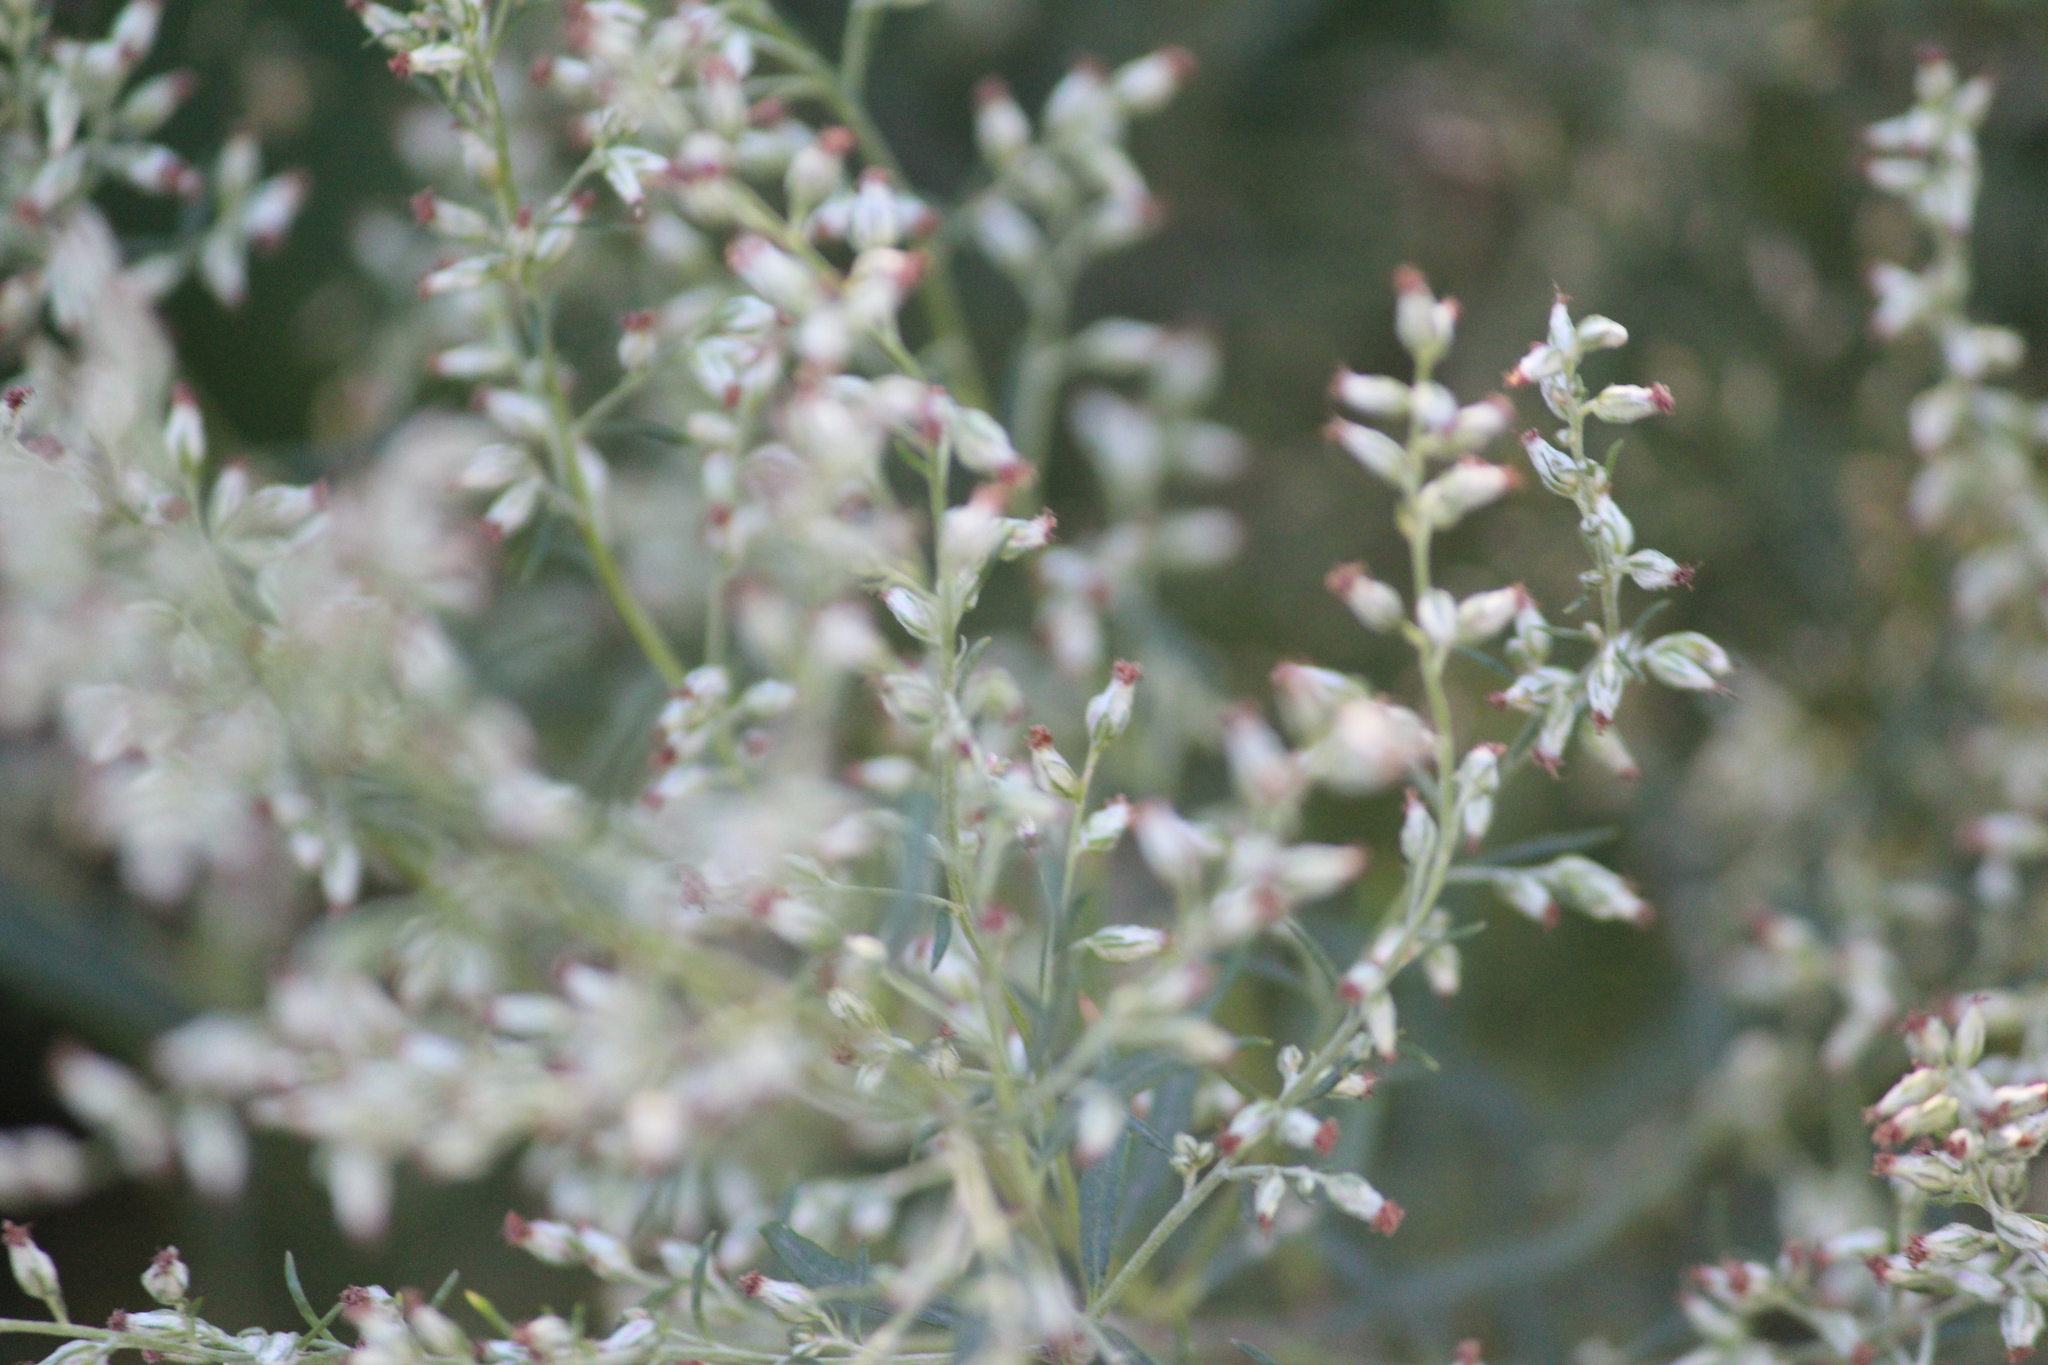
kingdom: Plantae
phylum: Tracheophyta
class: Magnoliopsida
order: Asterales
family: Asteraceae
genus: Artemisia
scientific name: Artemisia vulgaris
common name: Mugwort
